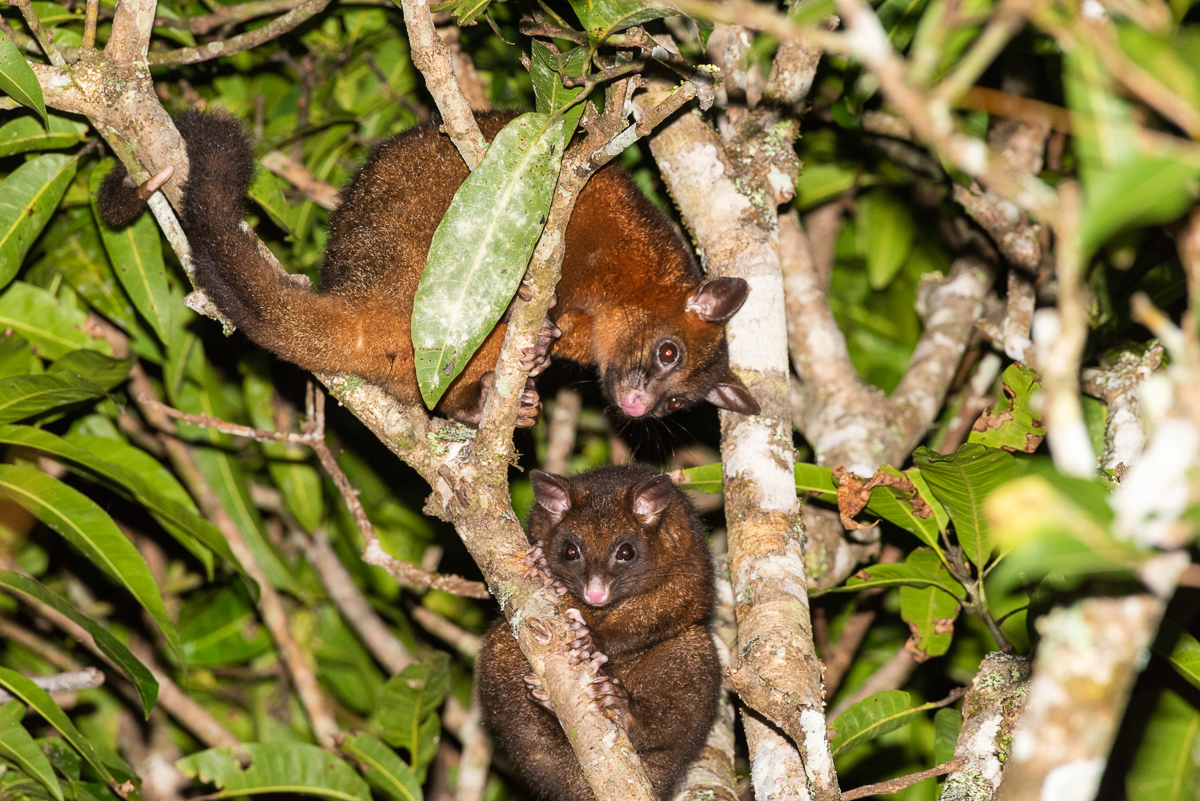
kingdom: Animalia
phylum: Chordata
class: Mammalia
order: Diprotodontia
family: Phalangeridae
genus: Trichosurus
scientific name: Trichosurus vulpecula
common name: Common brushtail
